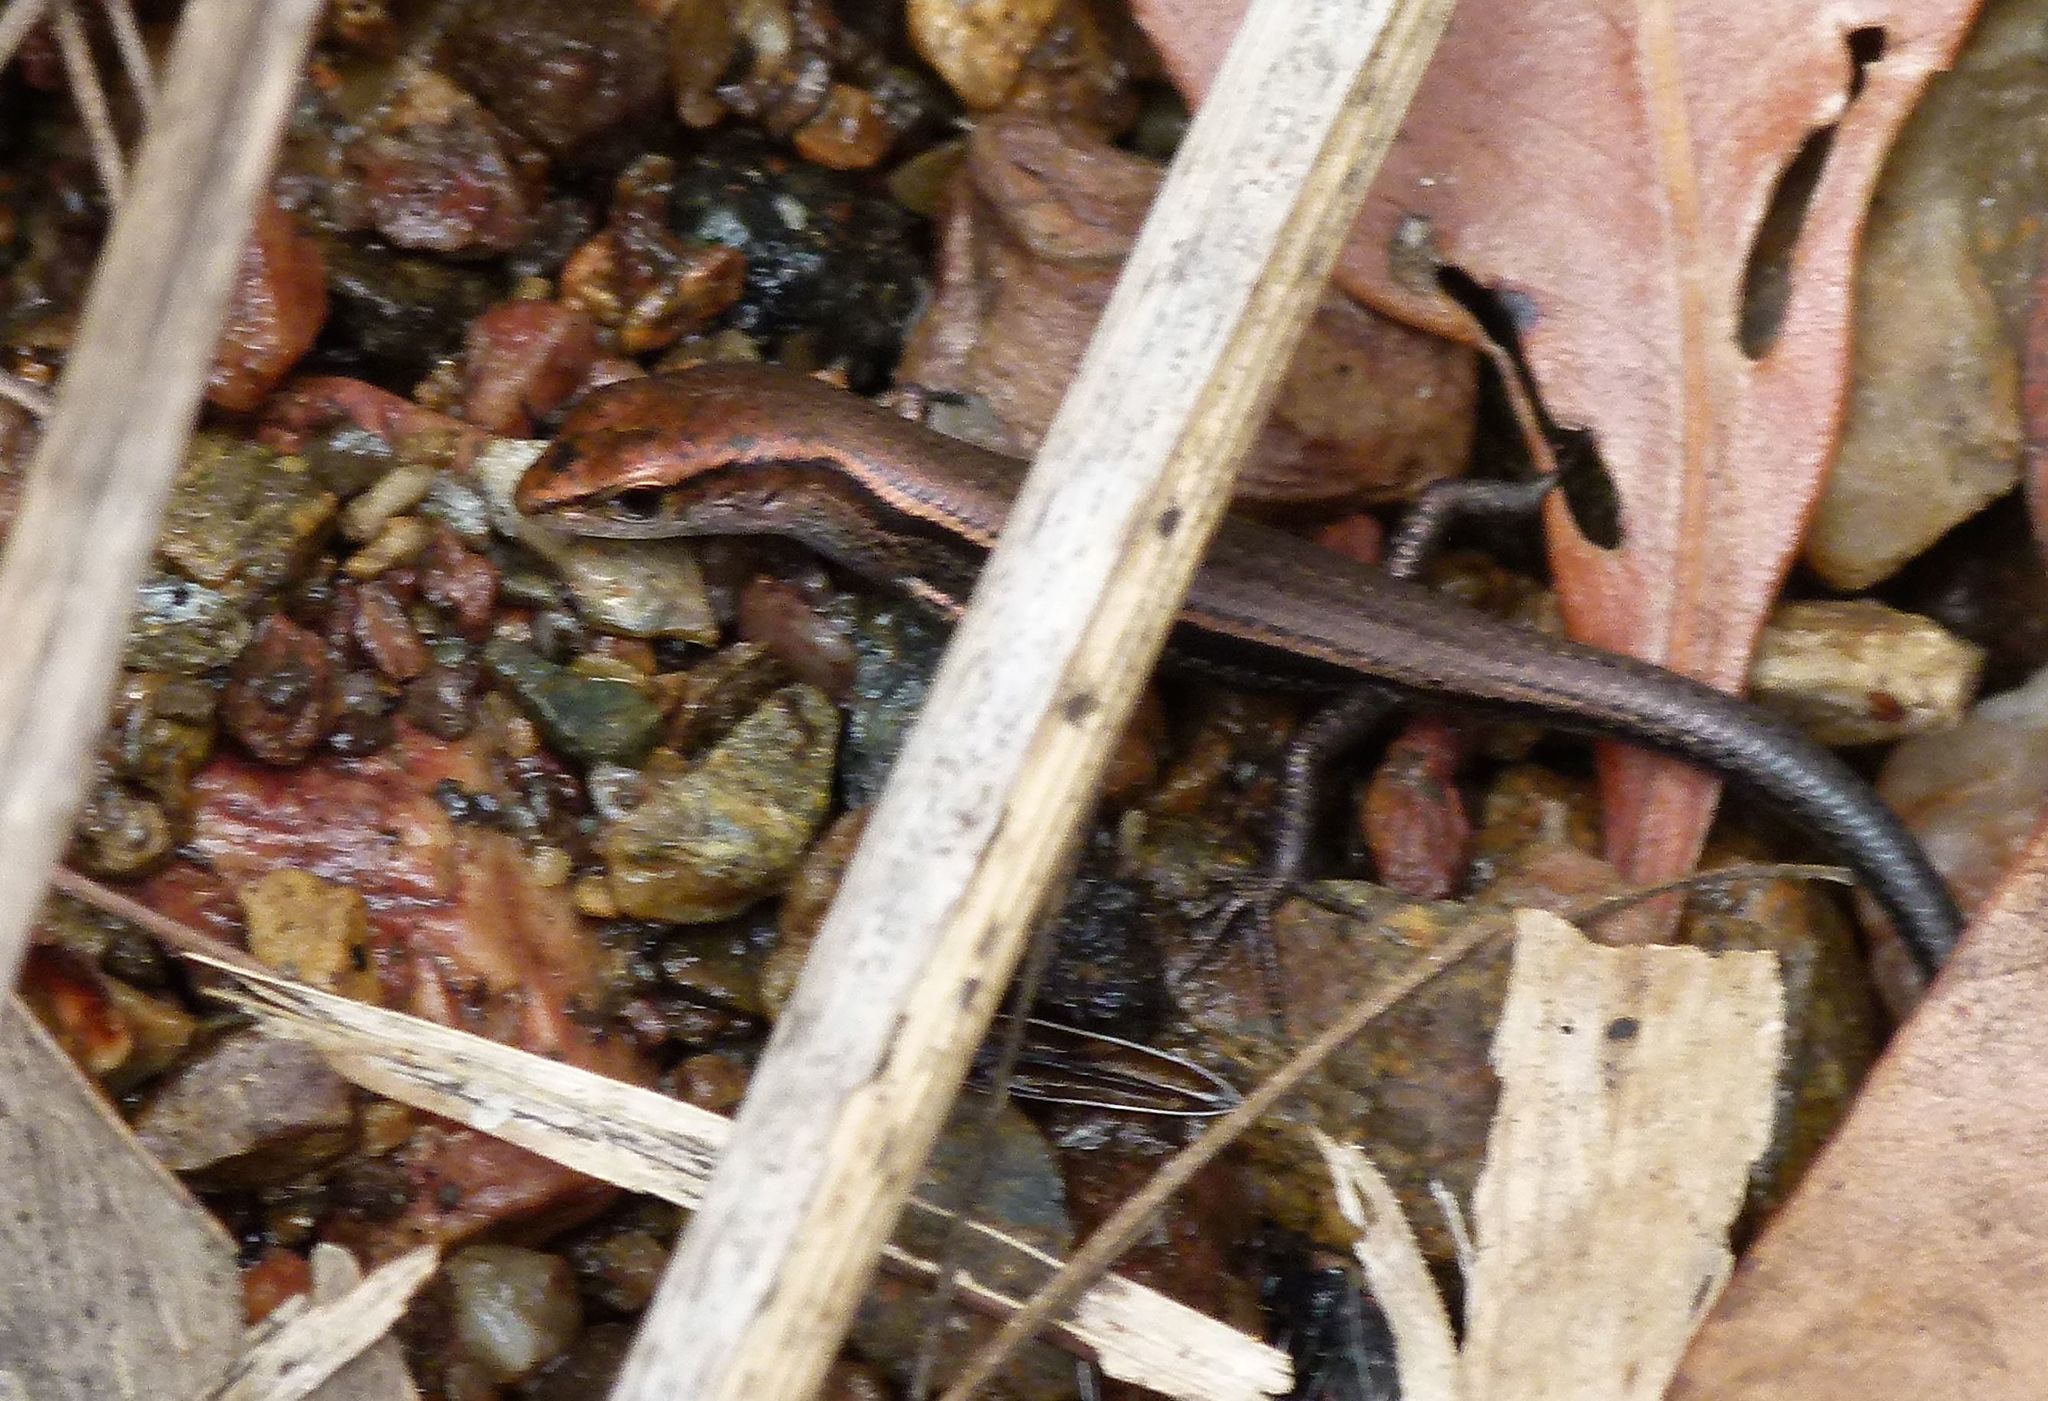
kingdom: Animalia
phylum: Chordata
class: Squamata
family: Scincidae
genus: Lampropholis
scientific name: Lampropholis delicata
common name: Plague skink
